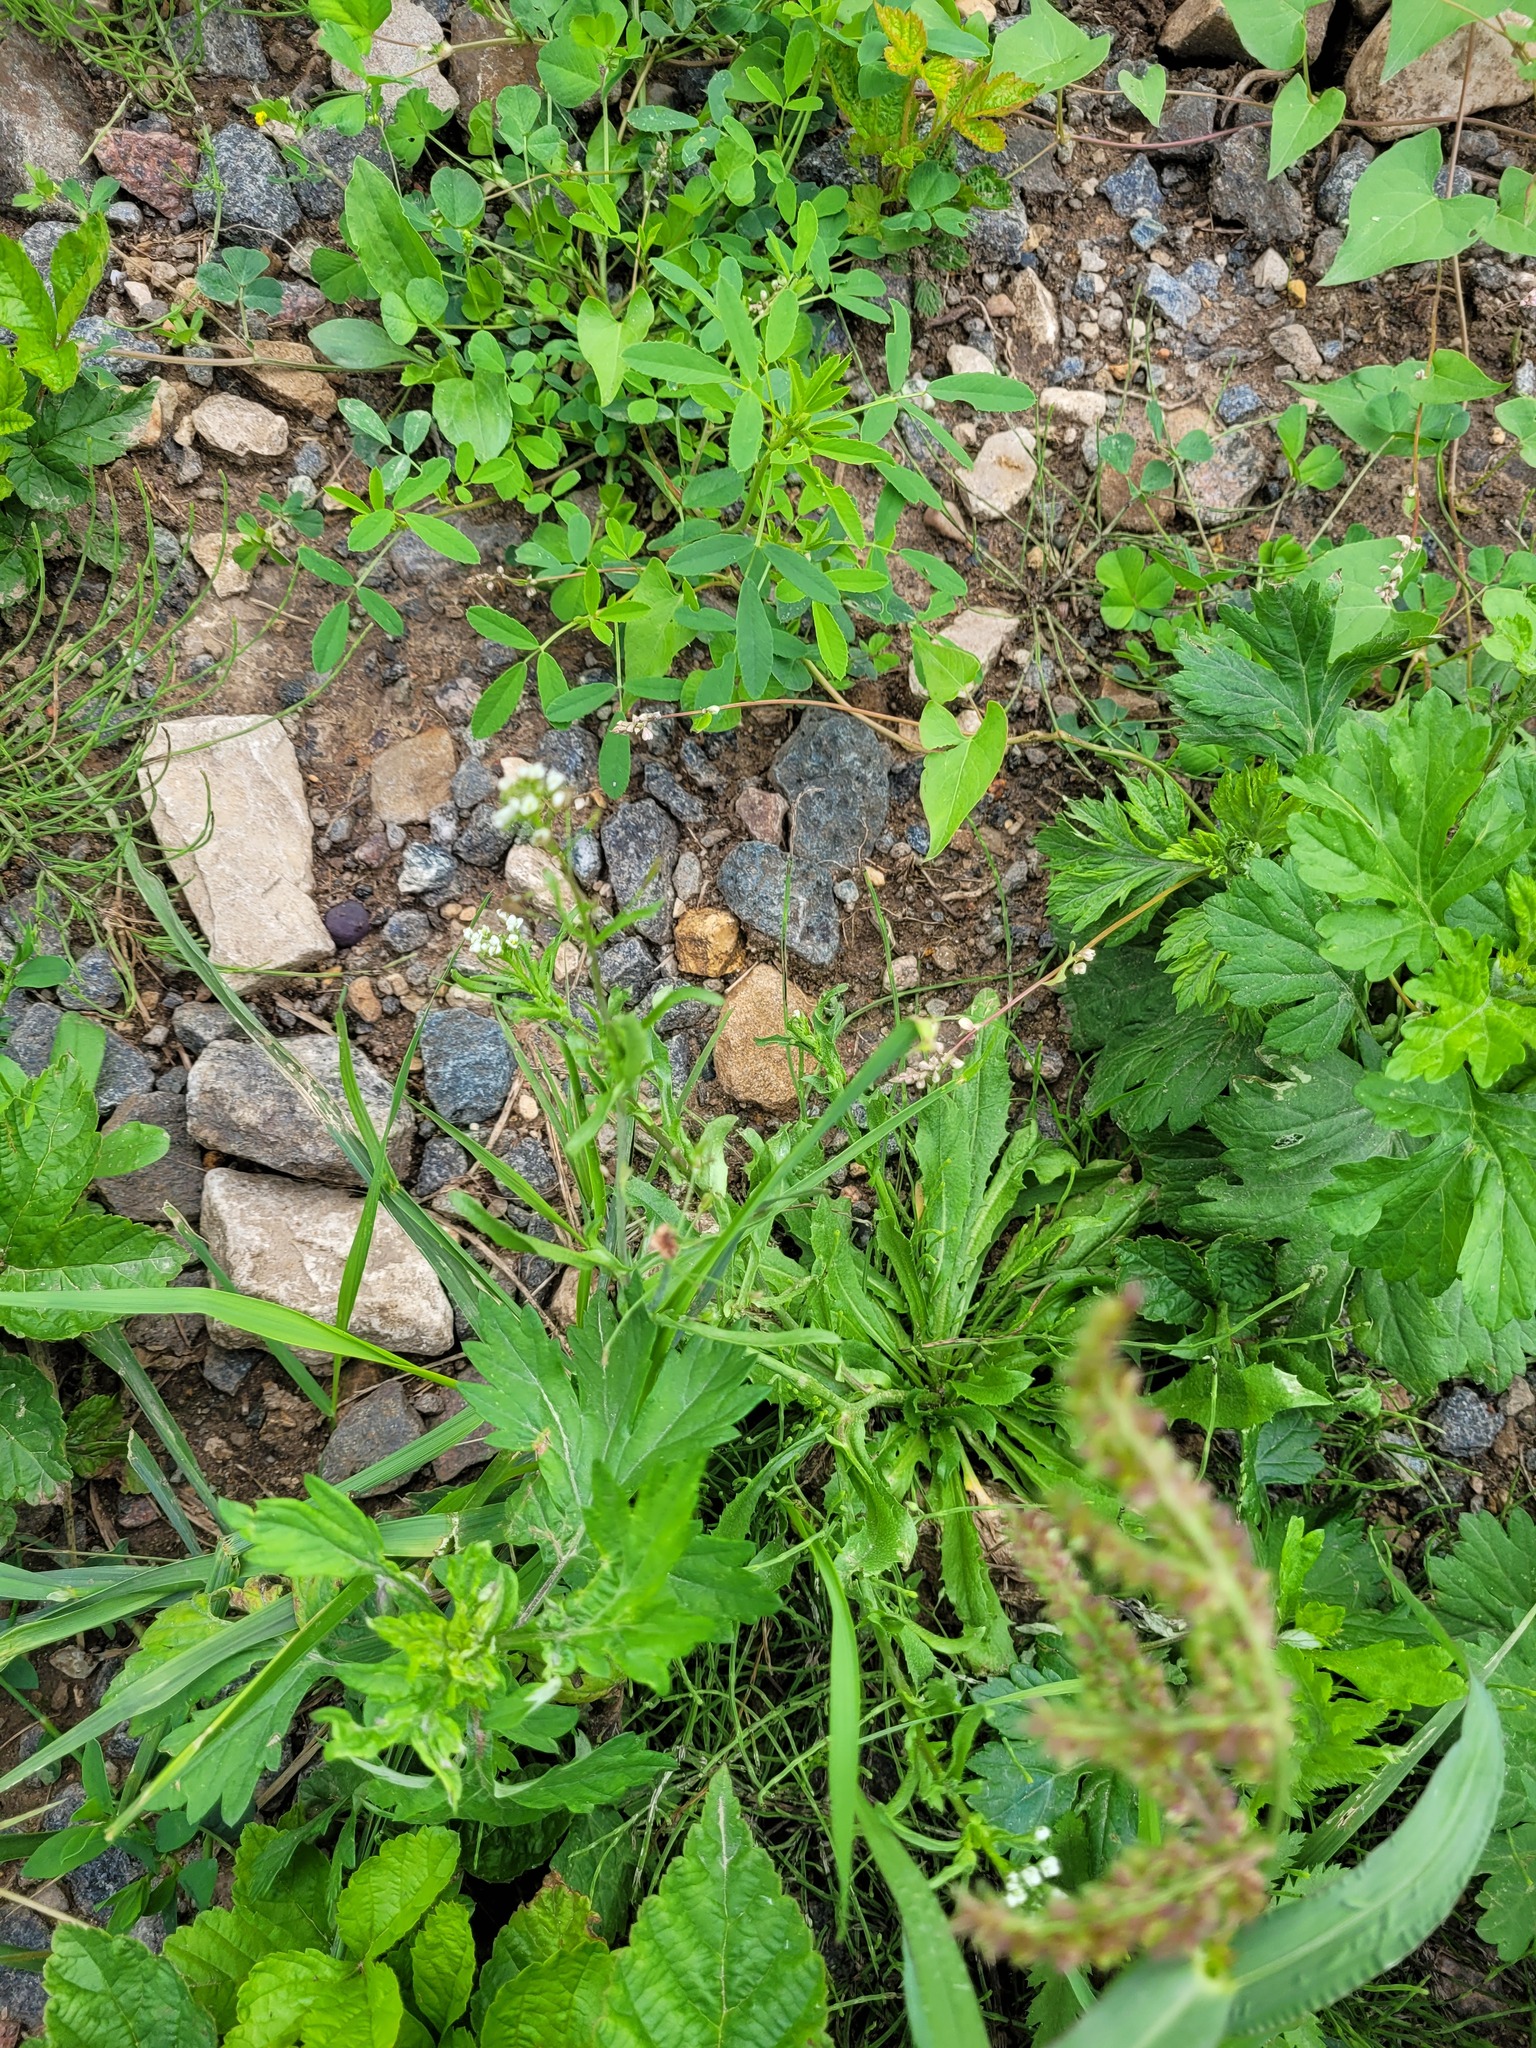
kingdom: Plantae
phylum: Tracheophyta
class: Magnoliopsida
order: Brassicales
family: Brassicaceae
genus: Capsella
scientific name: Capsella bursa-pastoris
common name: Shepherd's purse
